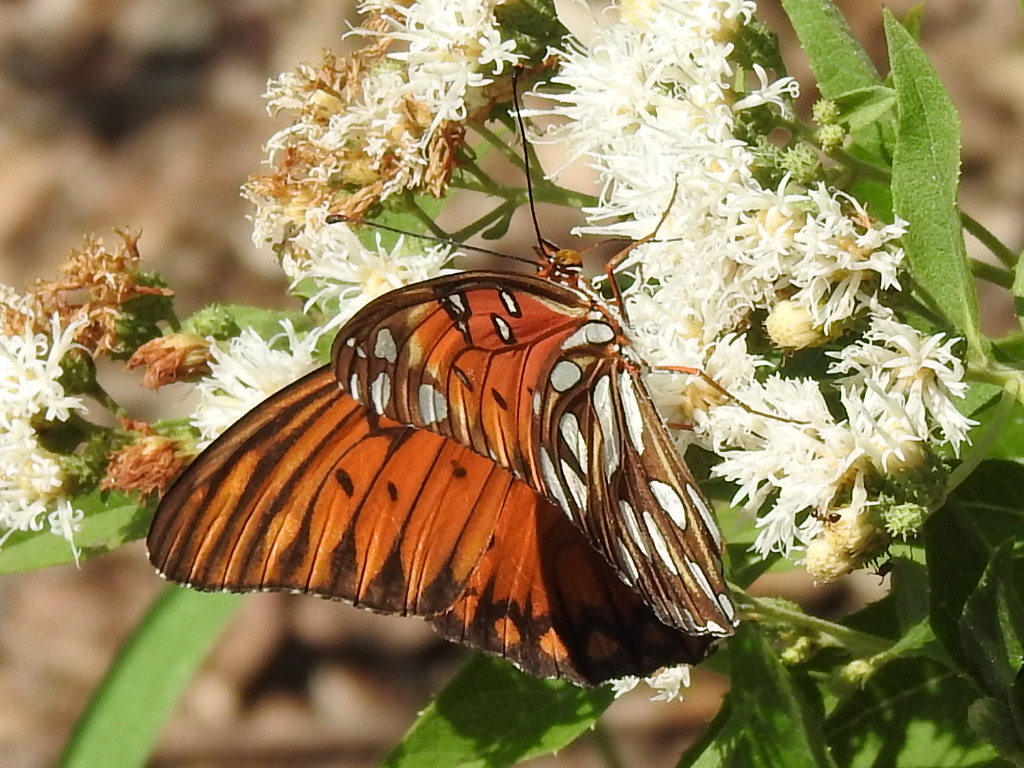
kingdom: Animalia
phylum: Arthropoda
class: Insecta
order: Lepidoptera
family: Nymphalidae
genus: Dione
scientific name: Dione vanillae
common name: Gulf fritillary
